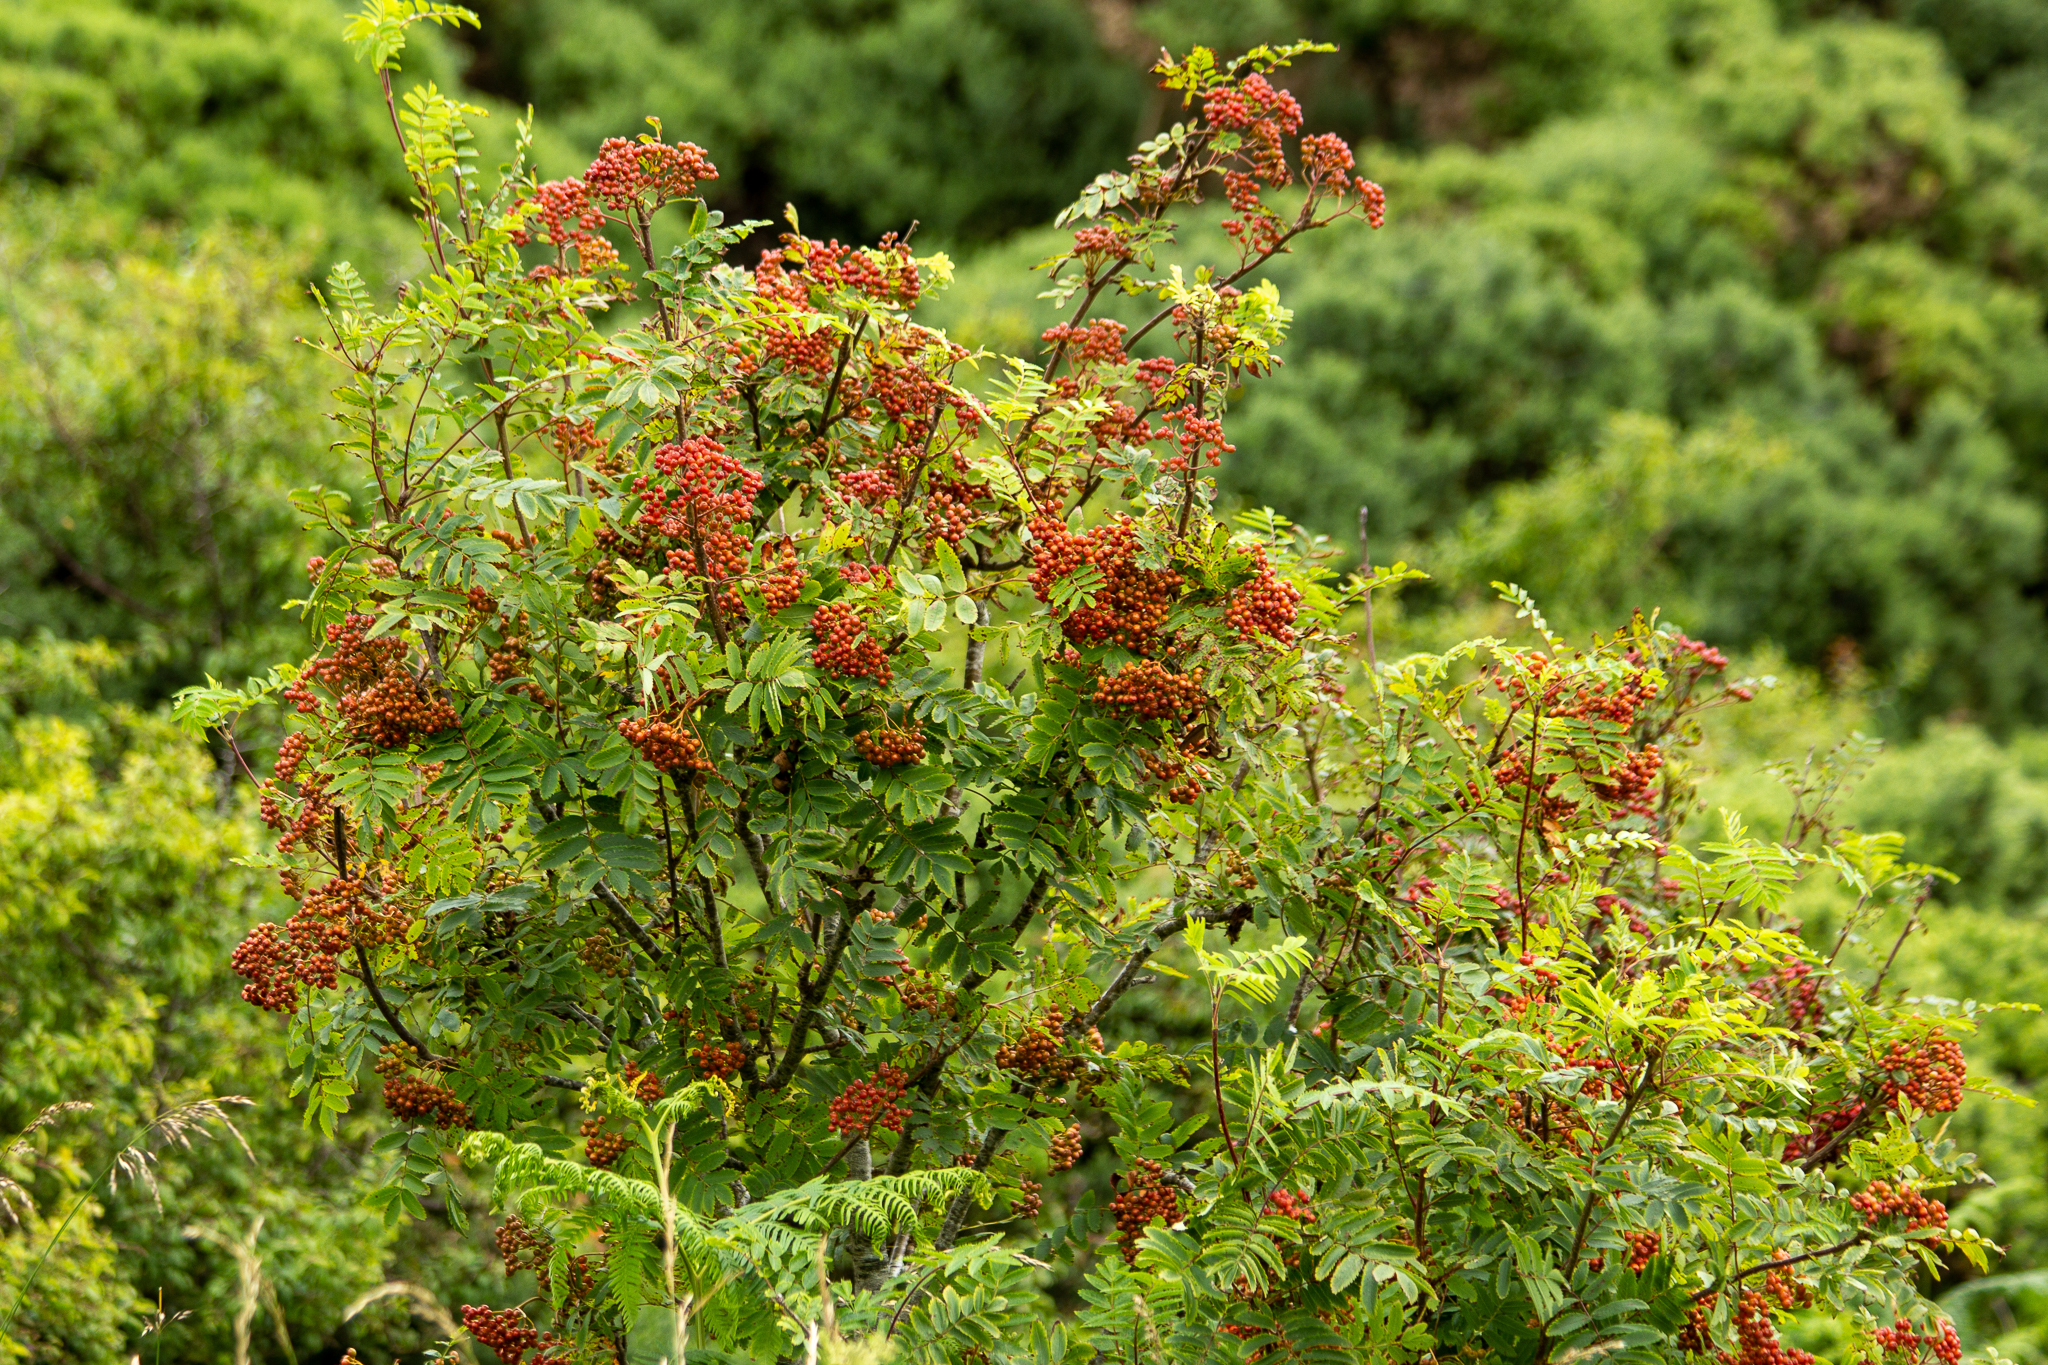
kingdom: Plantae
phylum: Tracheophyta
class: Magnoliopsida
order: Rosales
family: Rosaceae
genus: Sorbus
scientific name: Sorbus aucuparia
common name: Rowan
